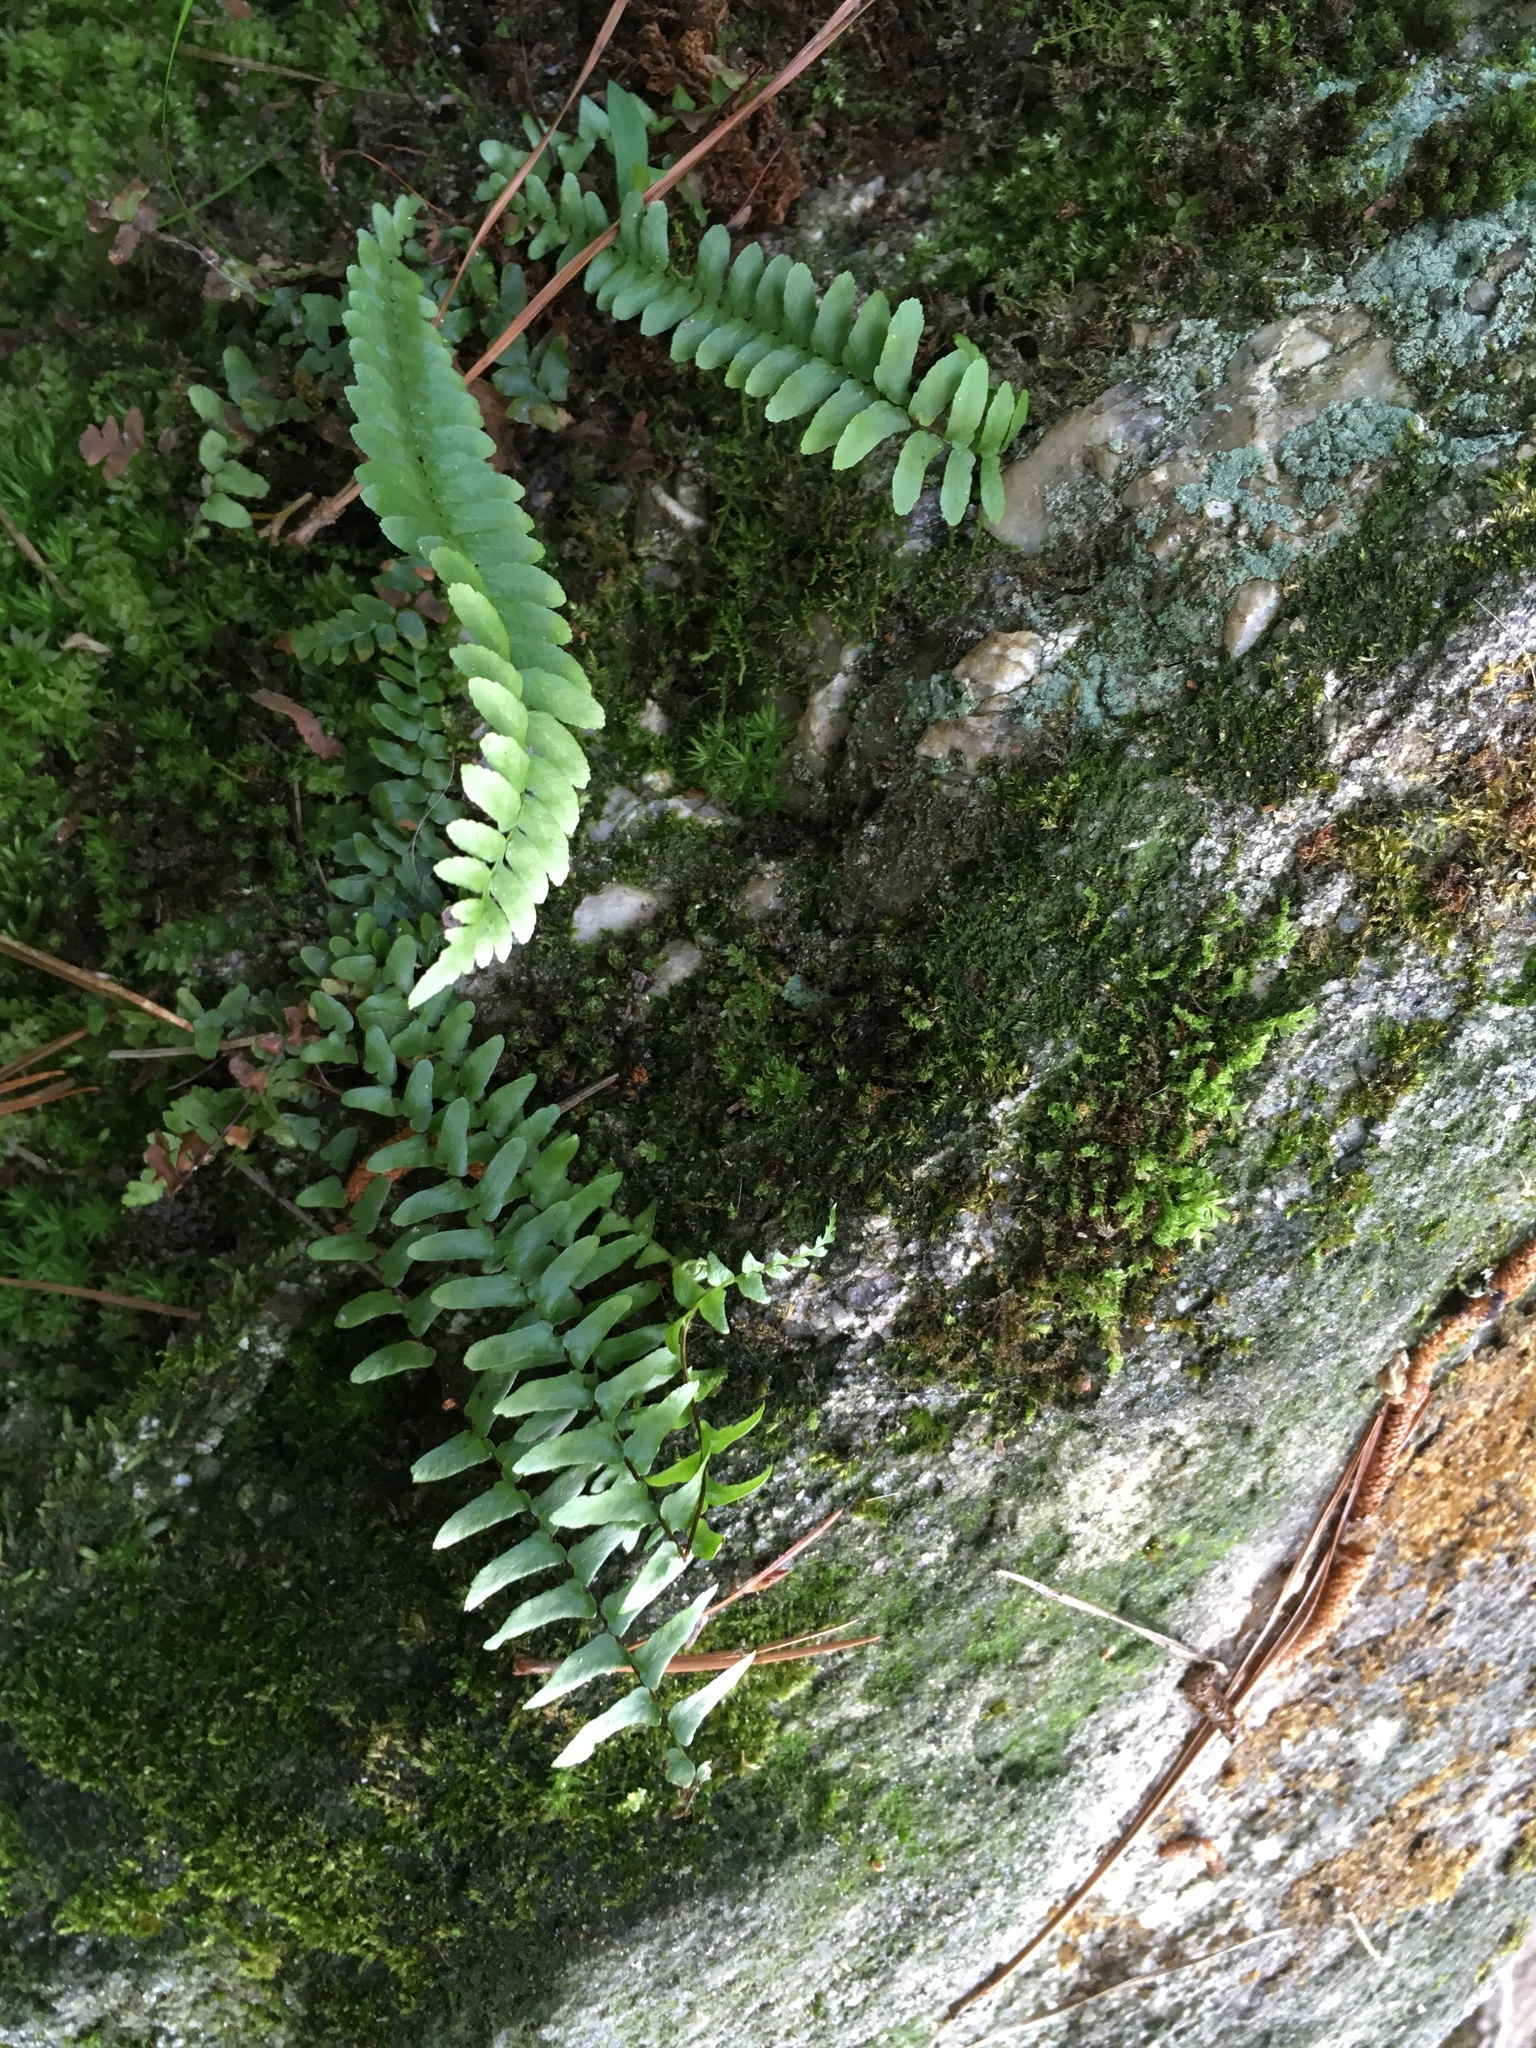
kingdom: Plantae
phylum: Tracheophyta
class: Polypodiopsida
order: Polypodiales
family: Aspleniaceae
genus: Asplenium
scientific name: Asplenium platyneuron
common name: Ebony spleenwort
